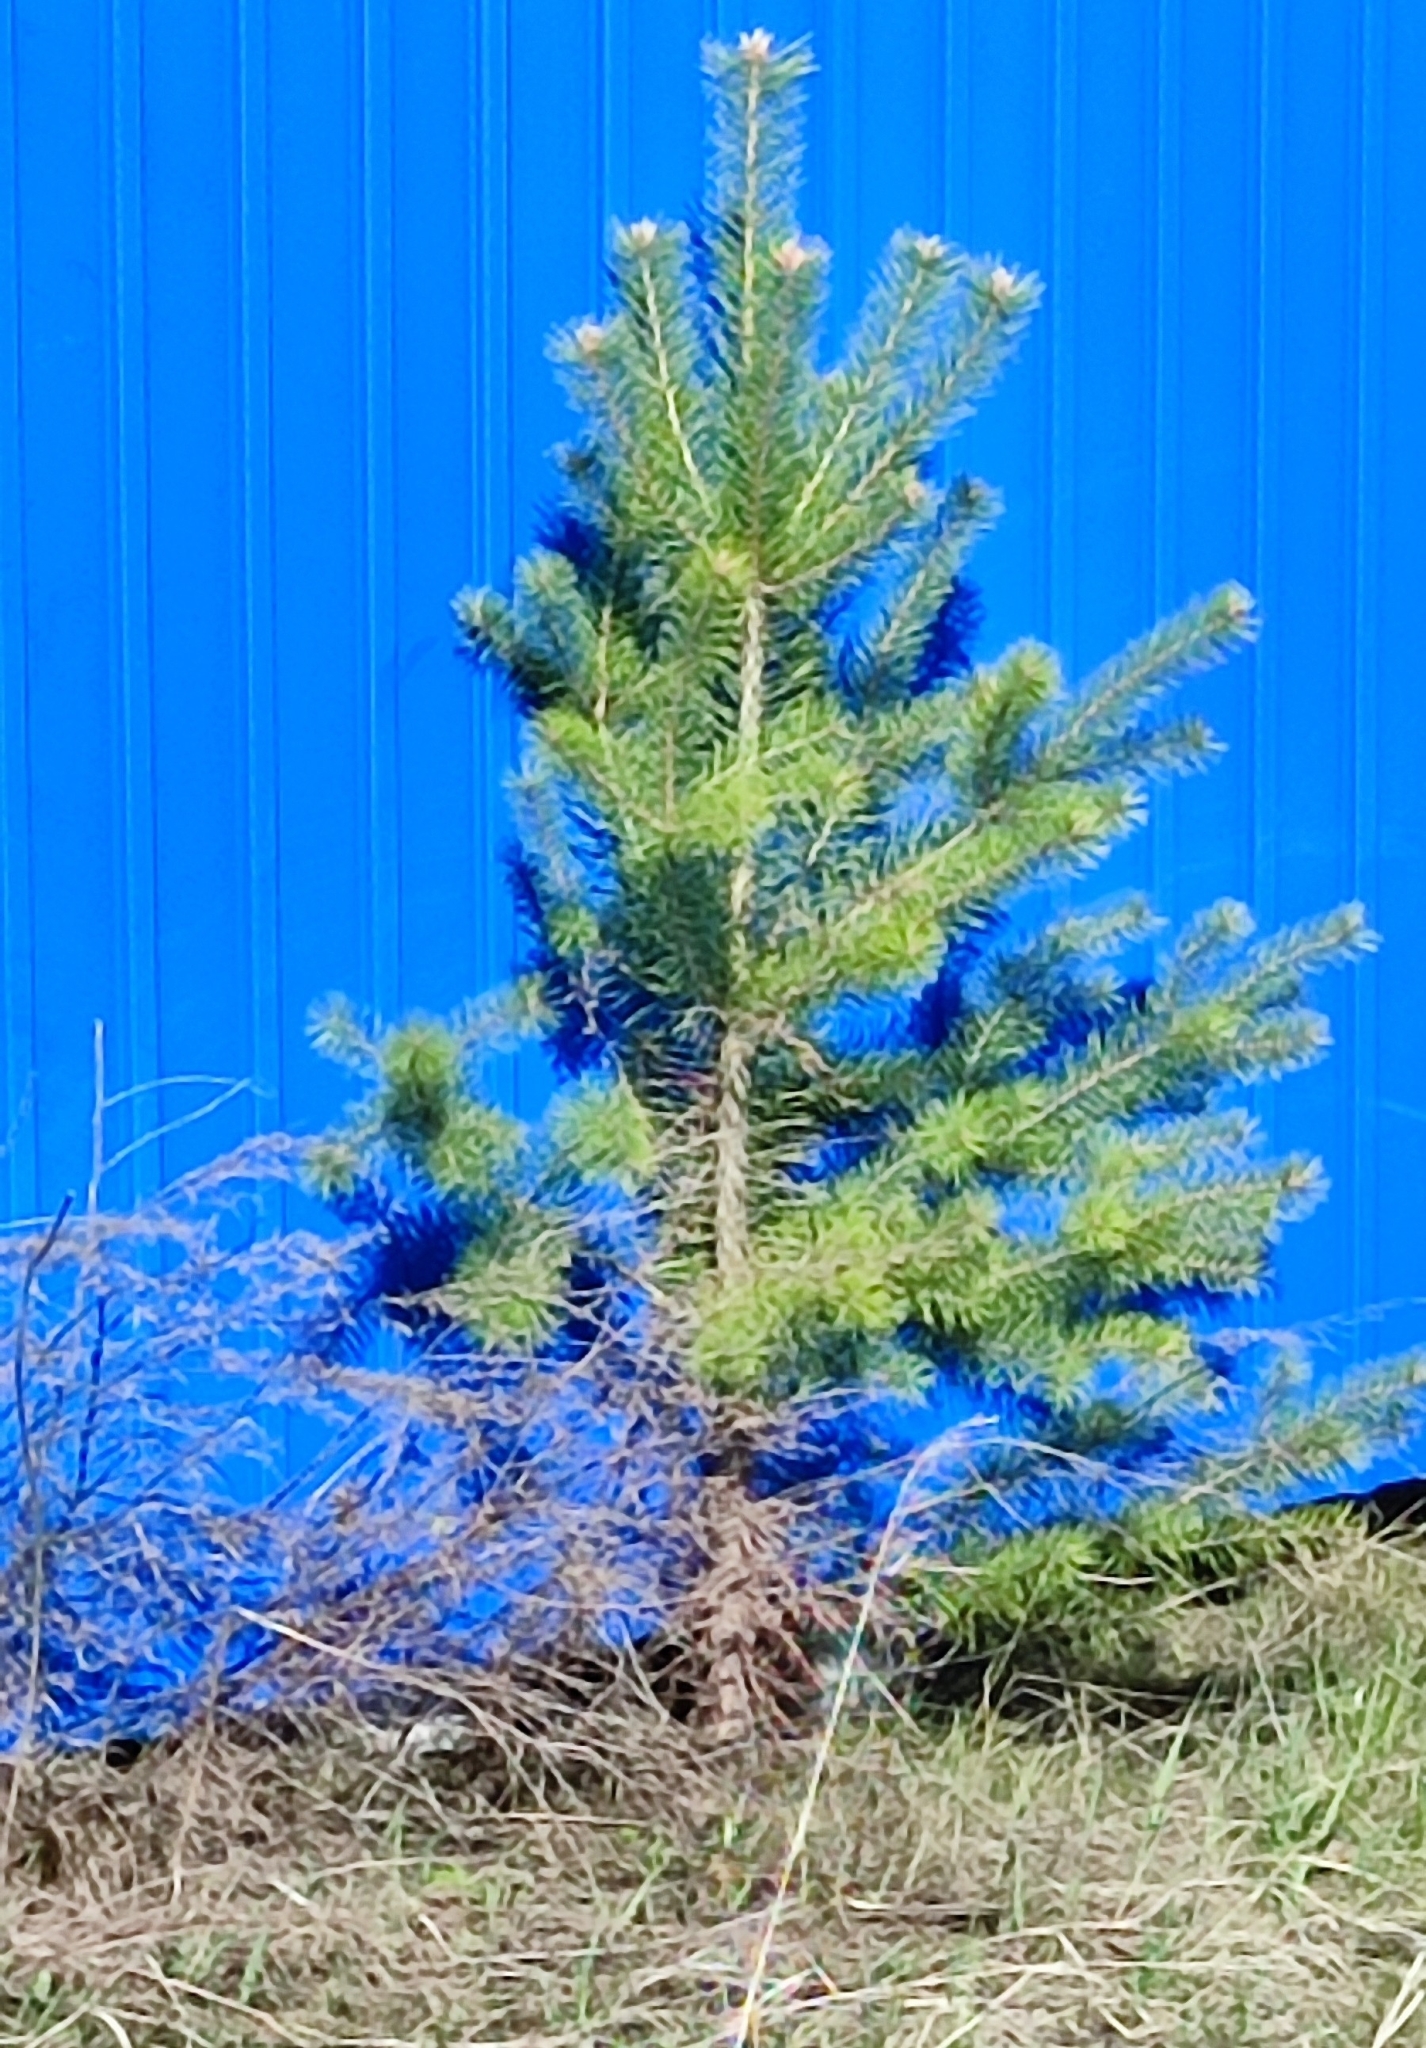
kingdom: Plantae
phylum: Tracheophyta
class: Pinopsida
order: Pinales
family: Pinaceae
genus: Pinus
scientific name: Pinus sylvestris
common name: Scots pine
